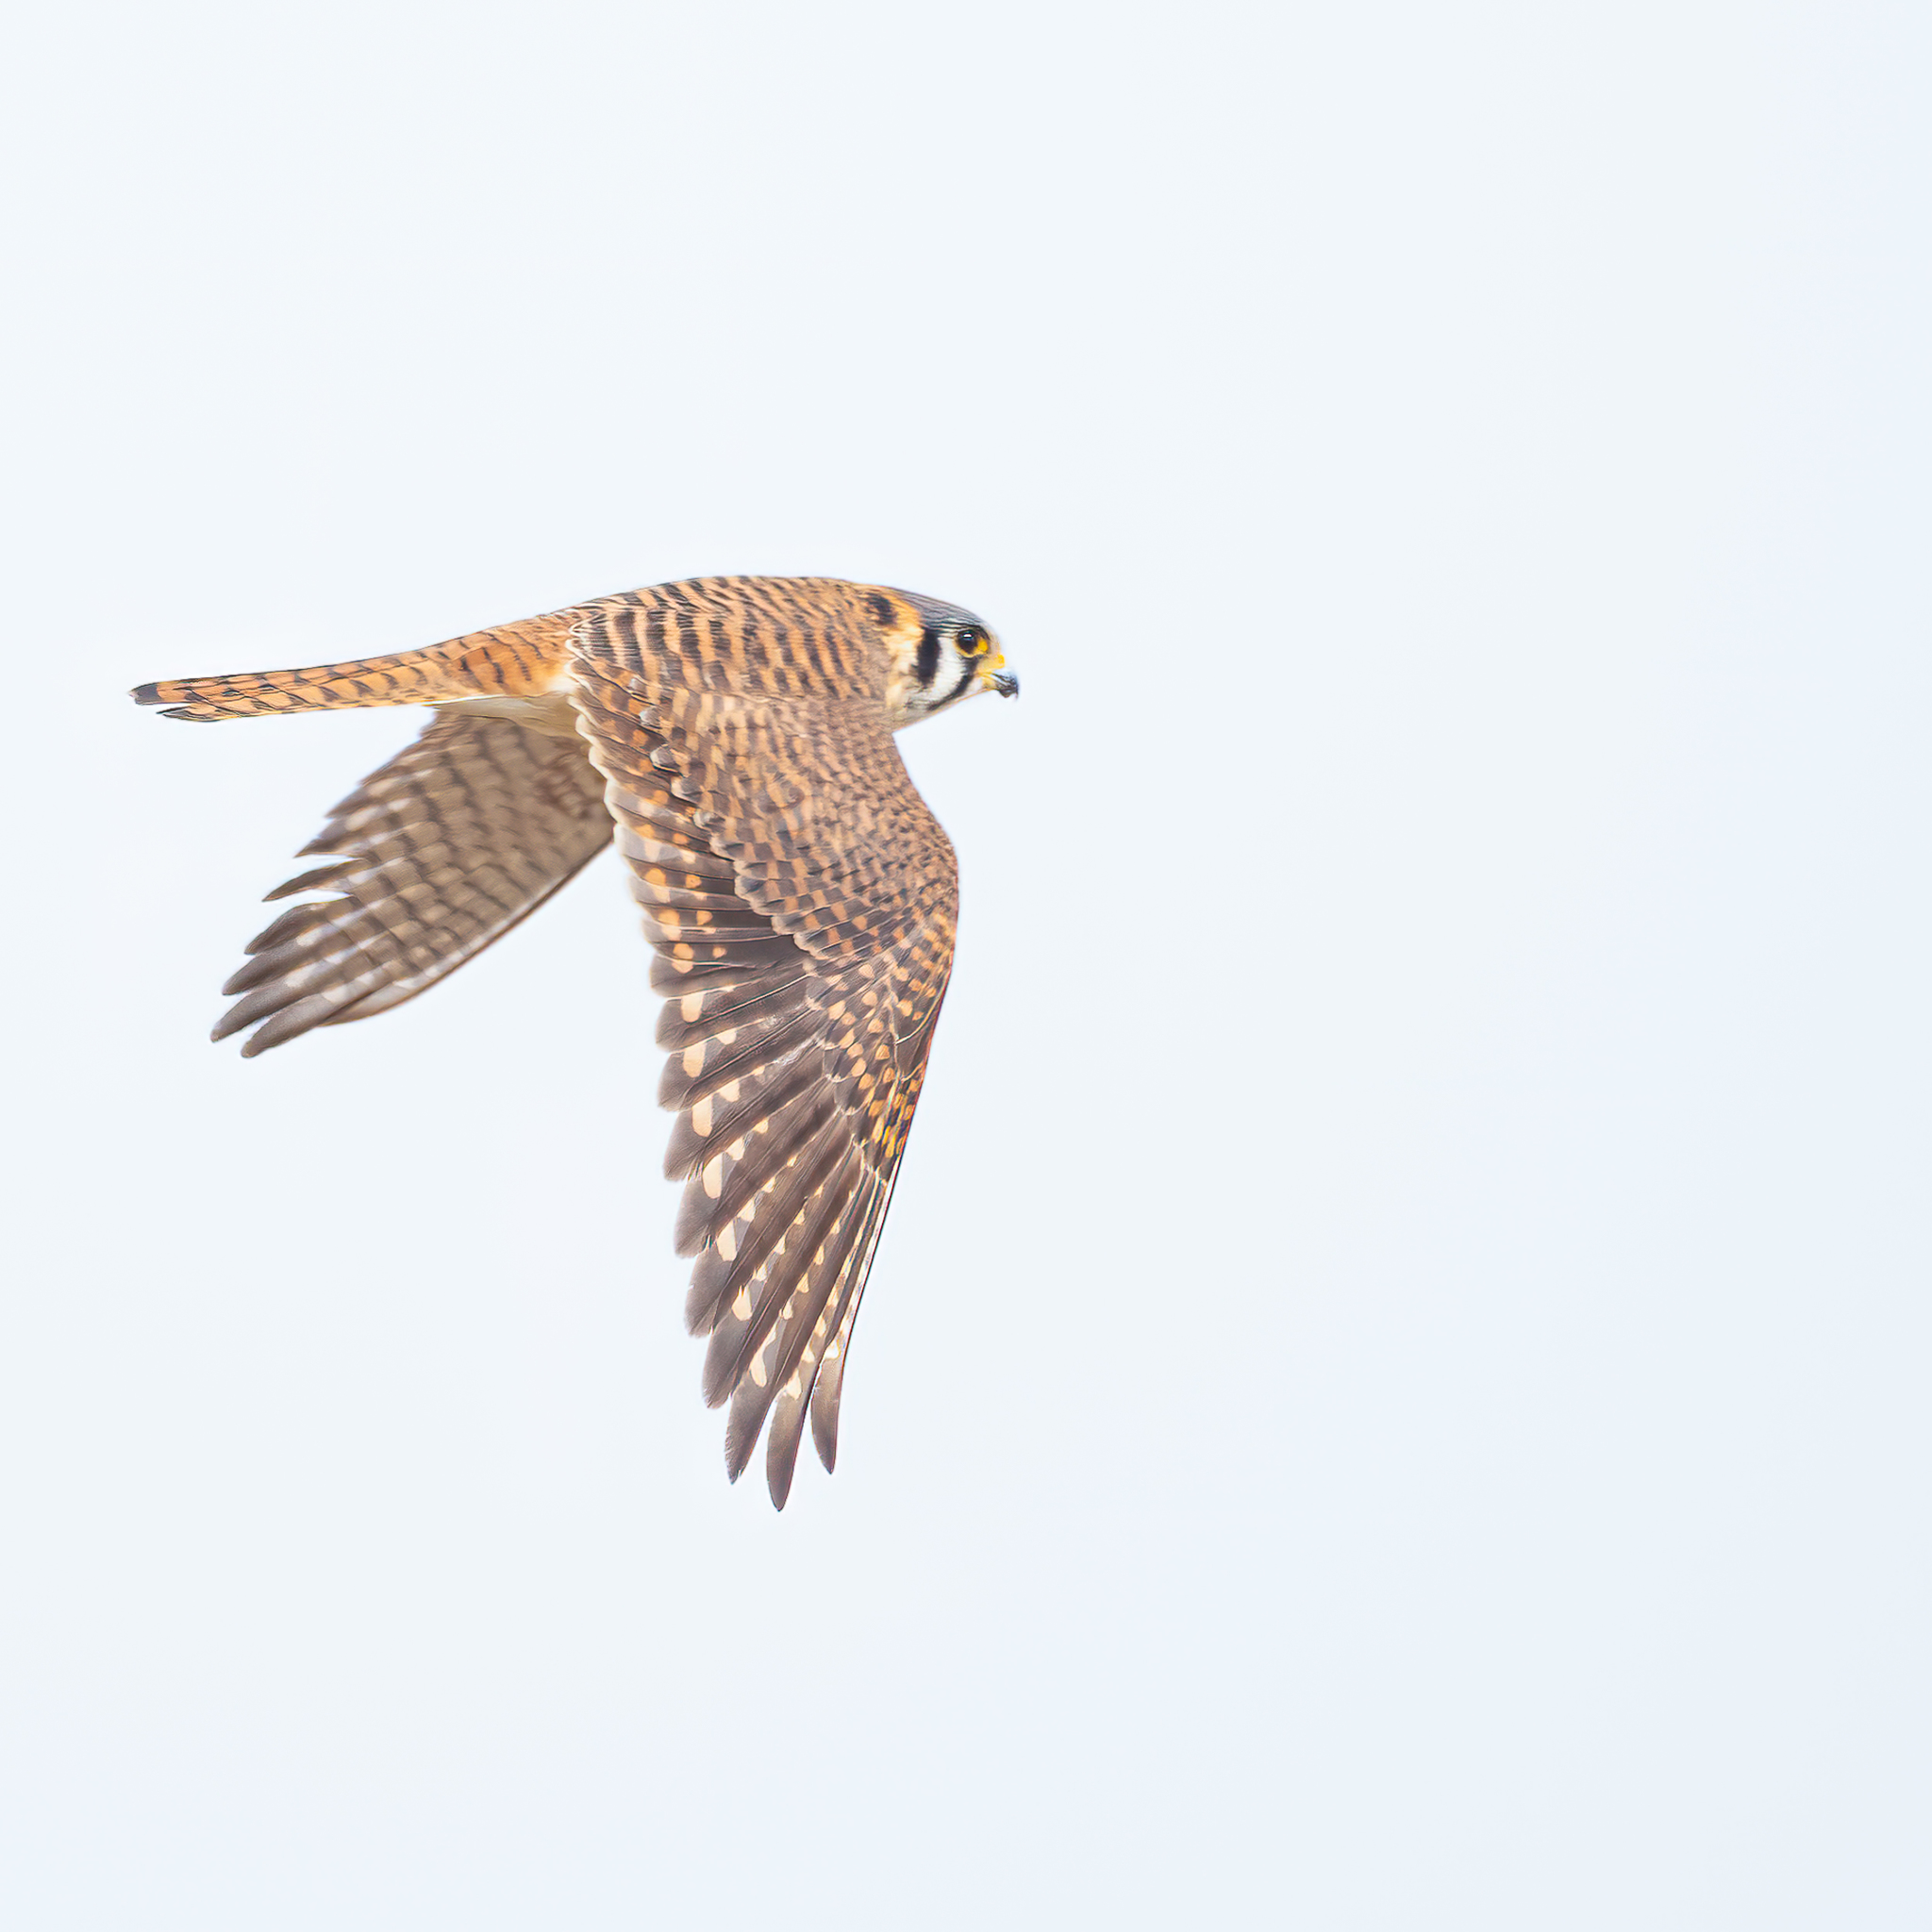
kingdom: Animalia
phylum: Chordata
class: Aves
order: Falconiformes
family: Falconidae
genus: Falco
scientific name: Falco sparverius
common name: American kestrel
